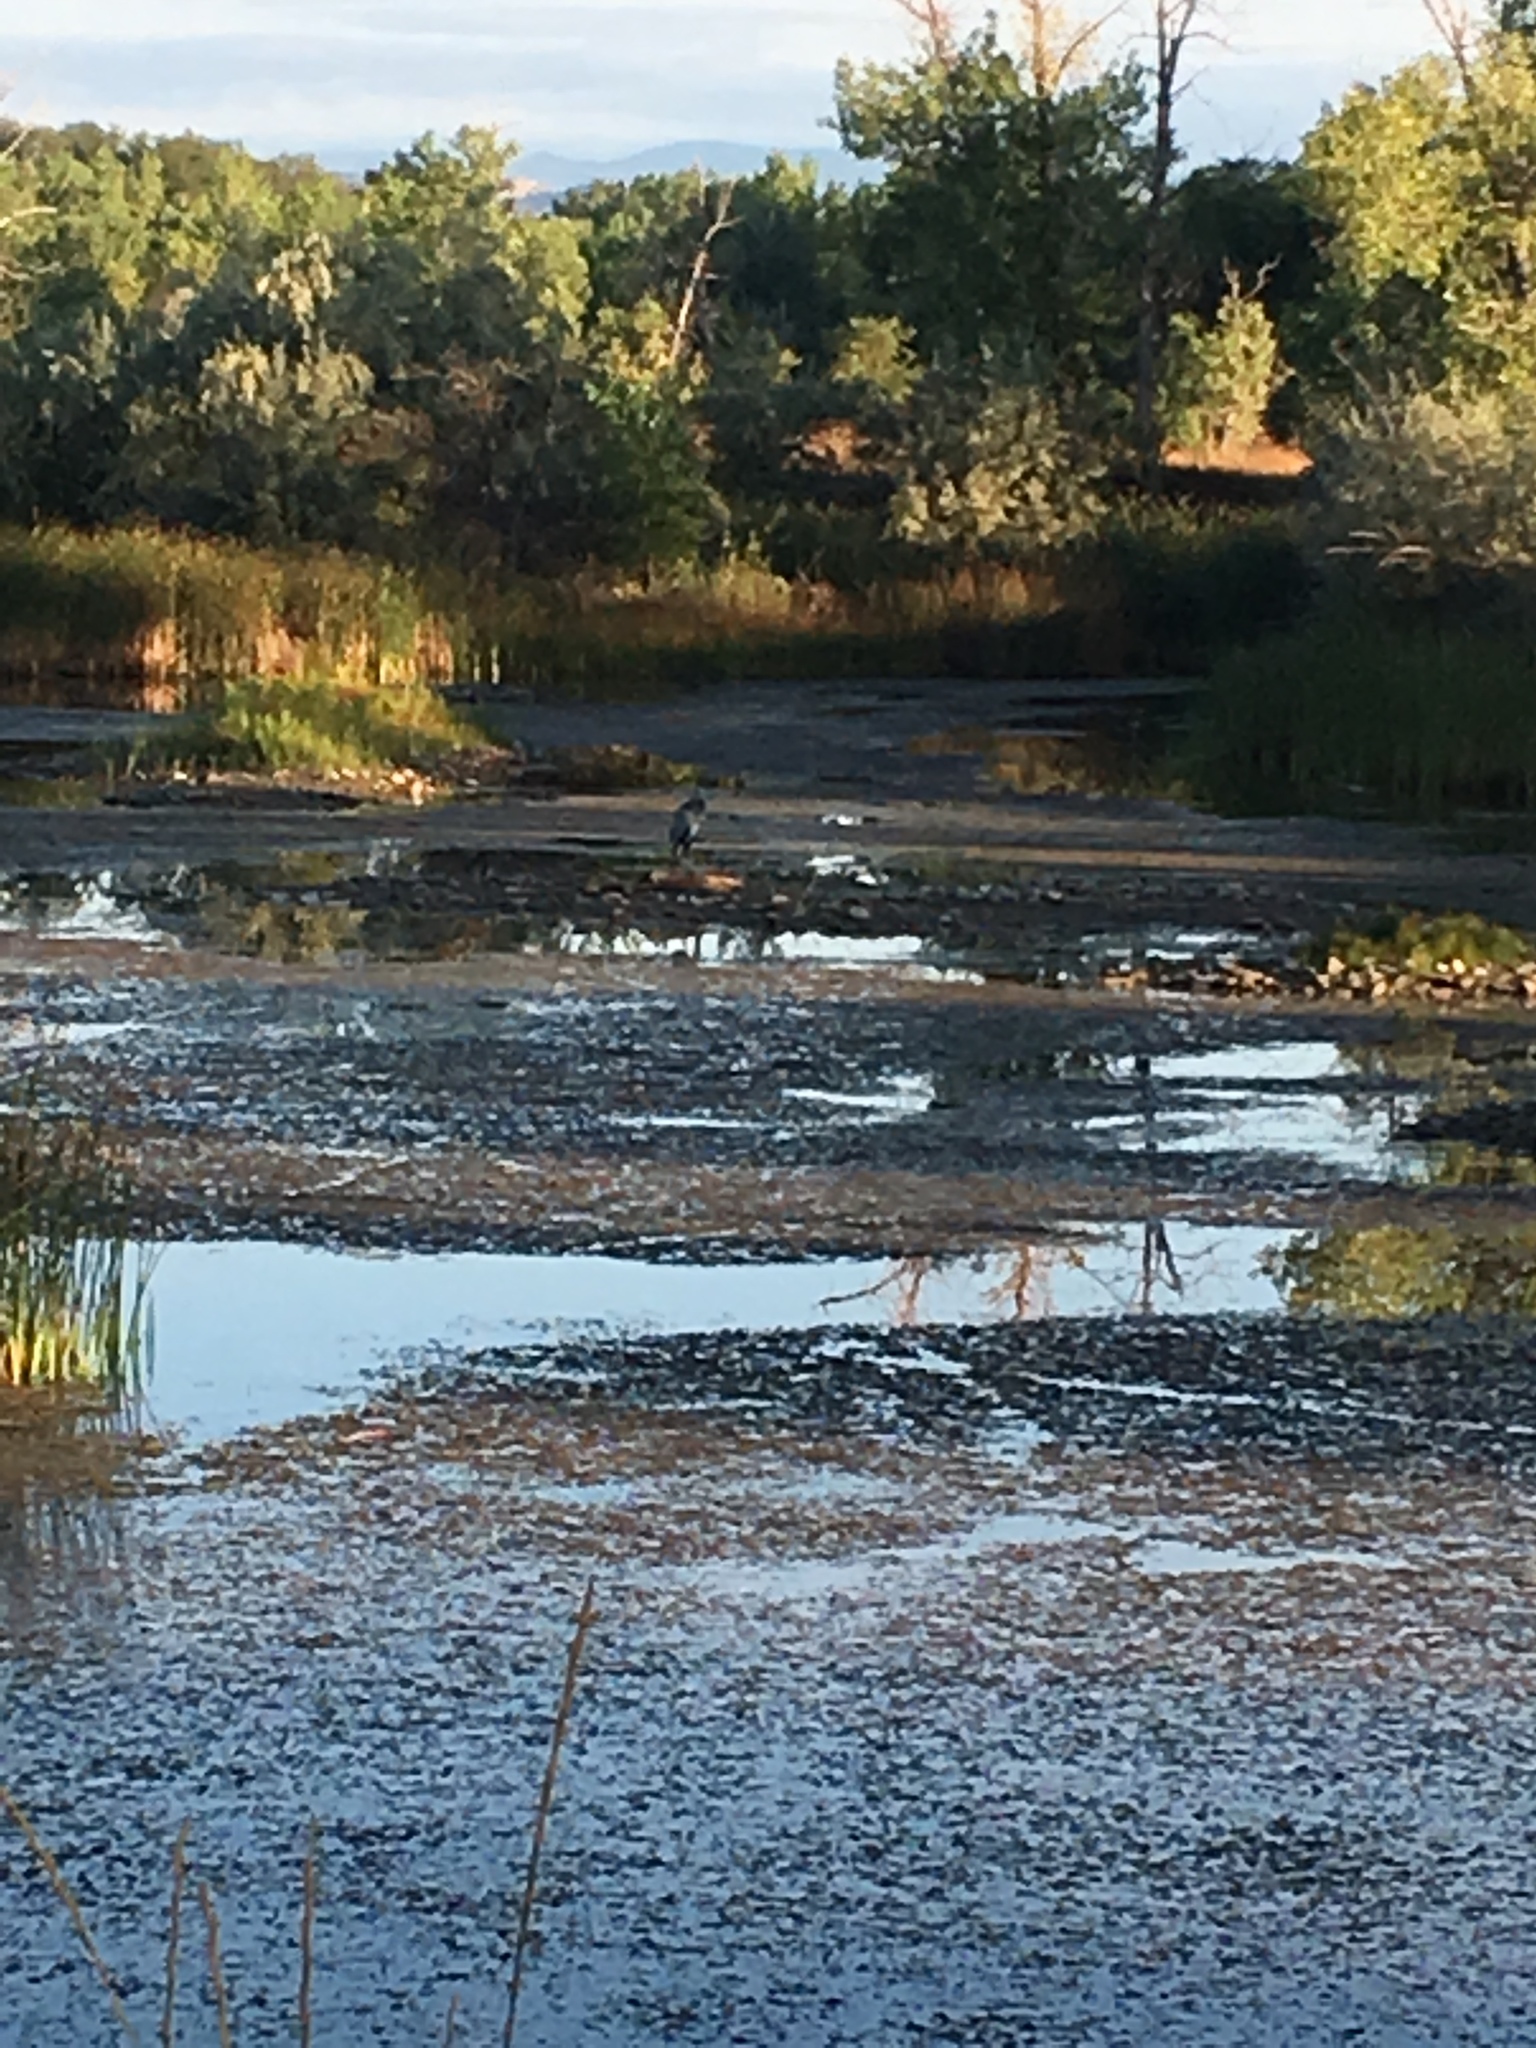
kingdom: Animalia
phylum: Chordata
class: Aves
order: Pelecaniformes
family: Ardeidae
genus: Ardea
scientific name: Ardea herodias
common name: Great blue heron
